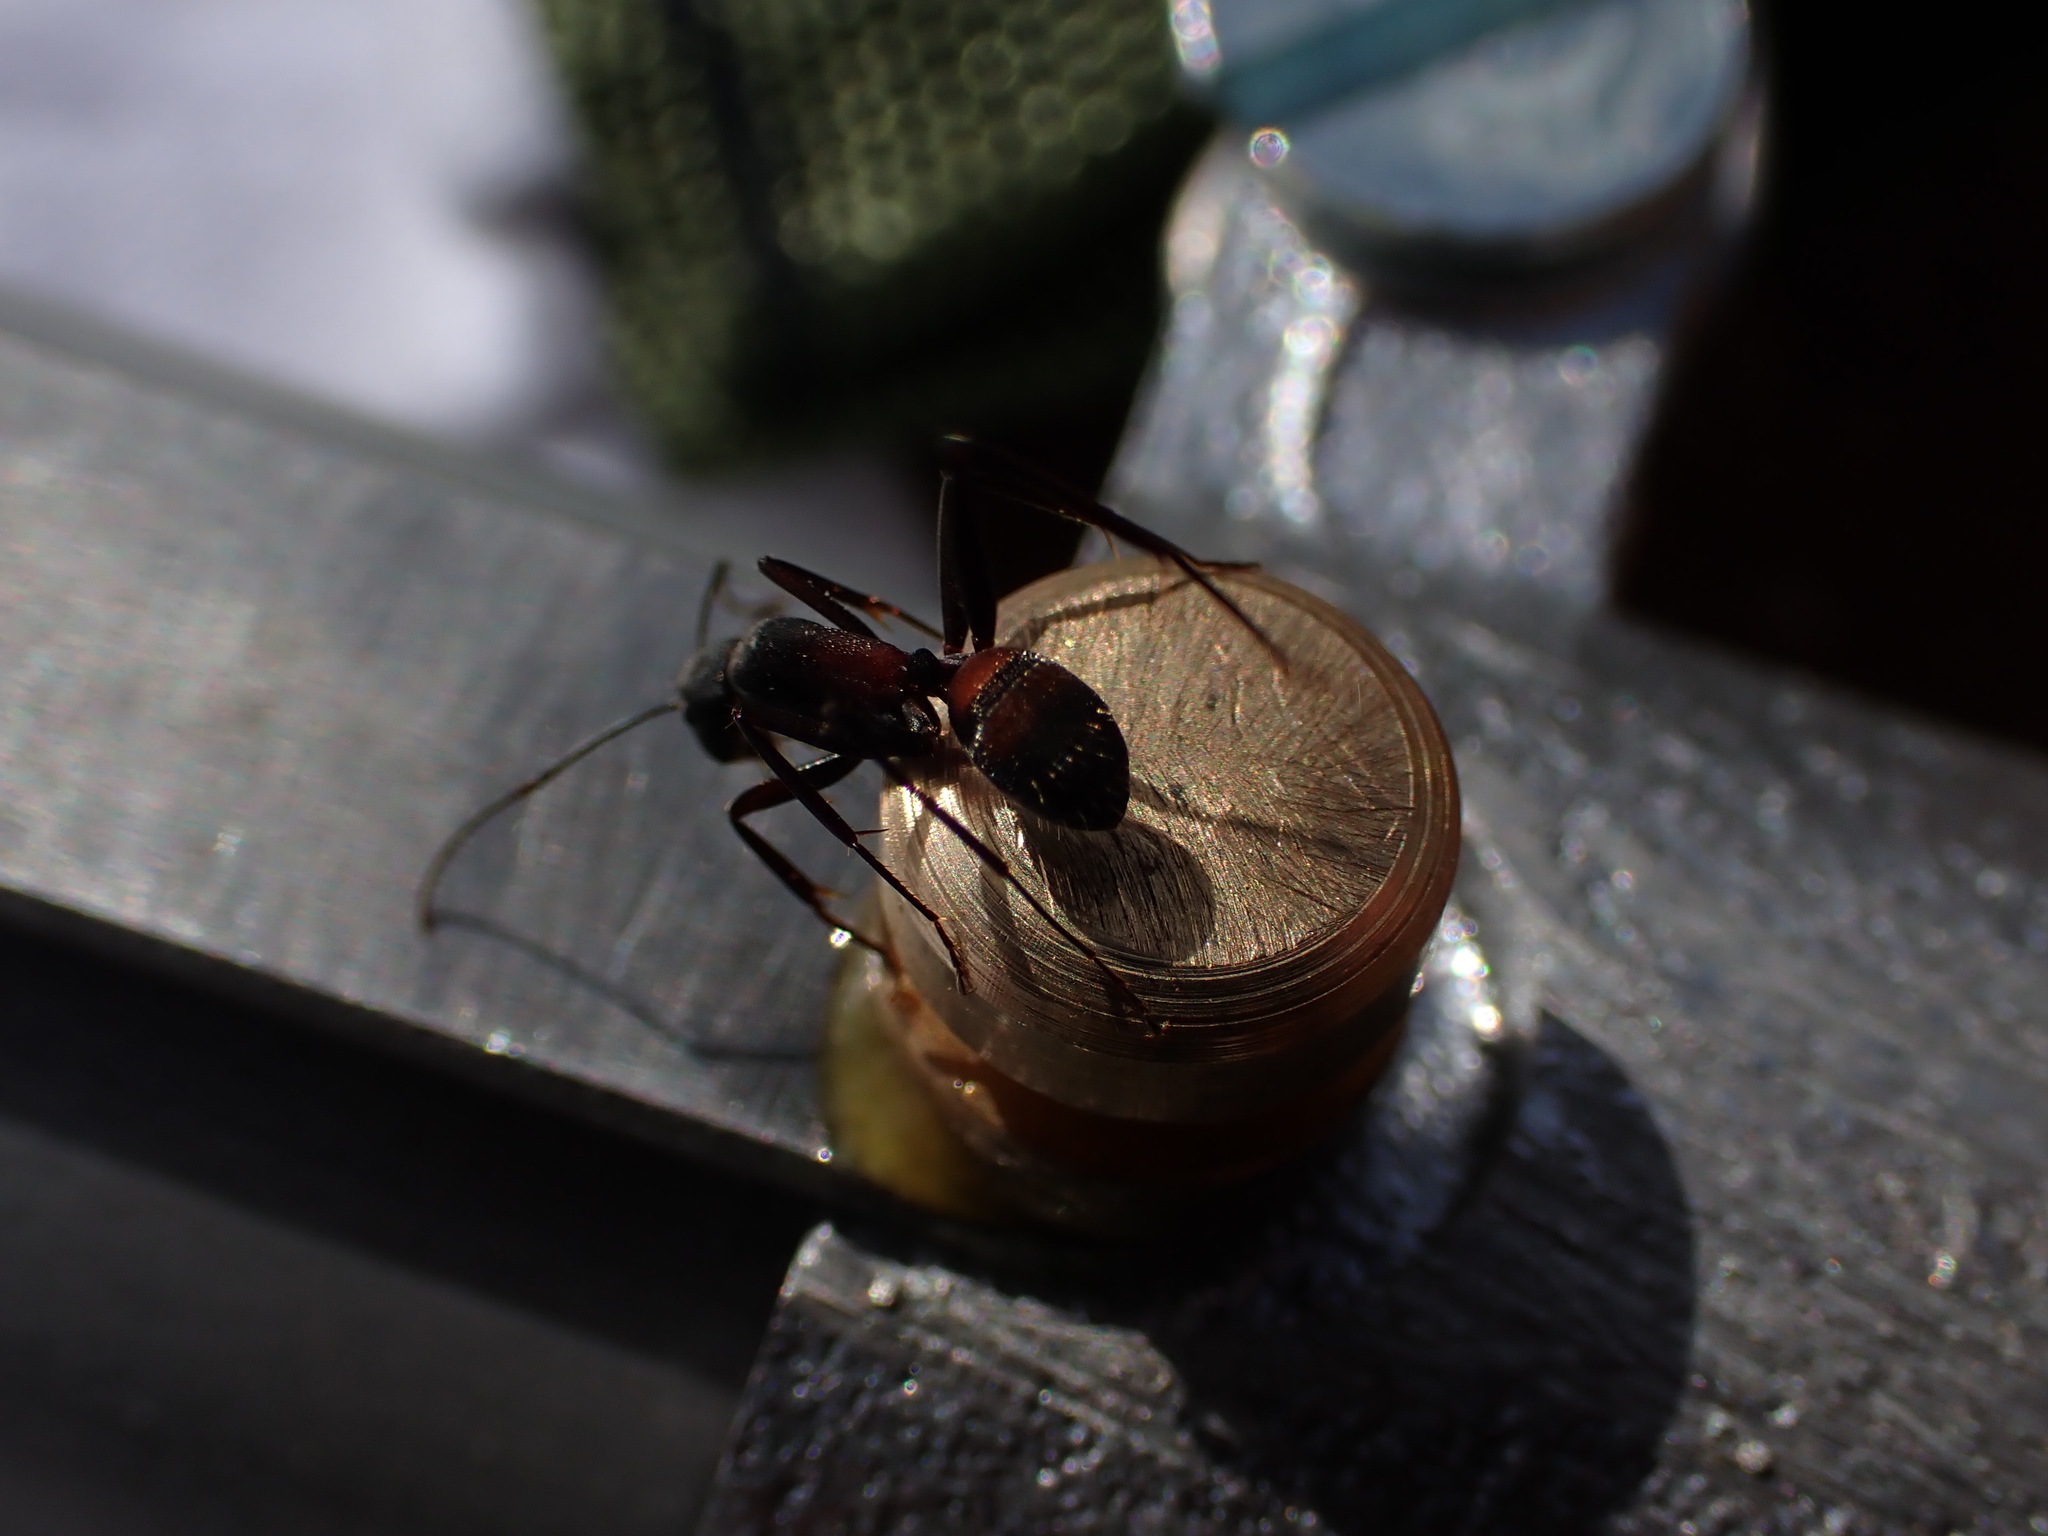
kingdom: Animalia
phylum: Arthropoda
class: Insecta
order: Hymenoptera
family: Formicidae
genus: Camponotus
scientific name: Camponotus cruentatus
